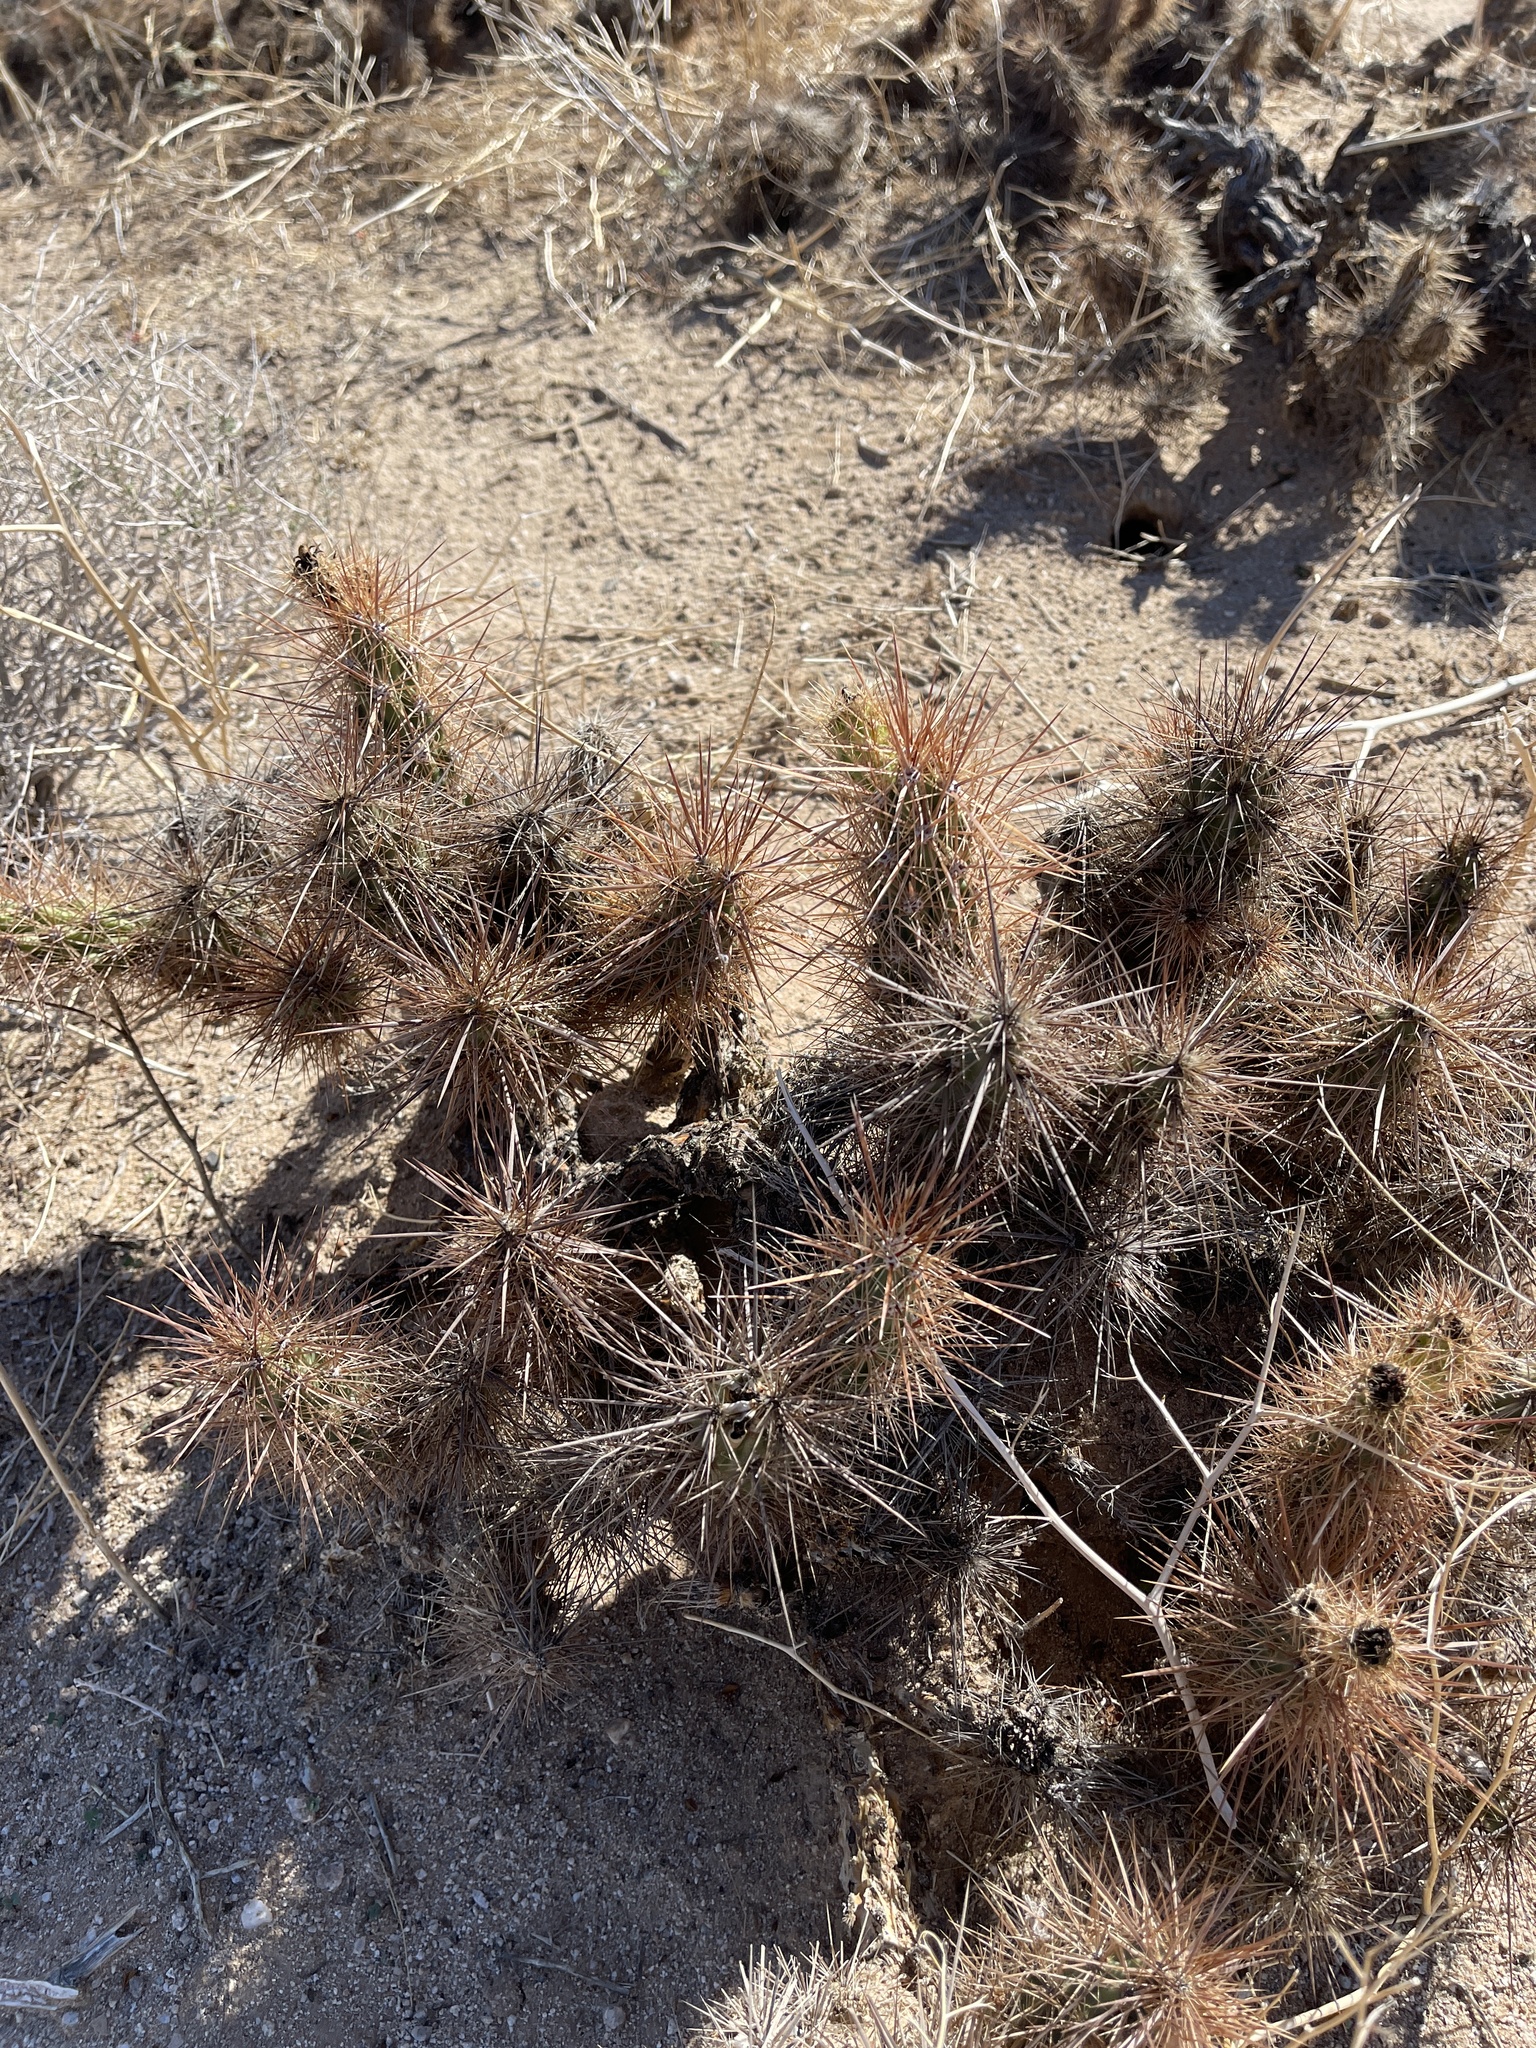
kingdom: Plantae
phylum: Tracheophyta
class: Magnoliopsida
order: Caryophyllales
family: Cactaceae
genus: Grusonia
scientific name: Grusonia kunzei
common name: Wright's club cholla
